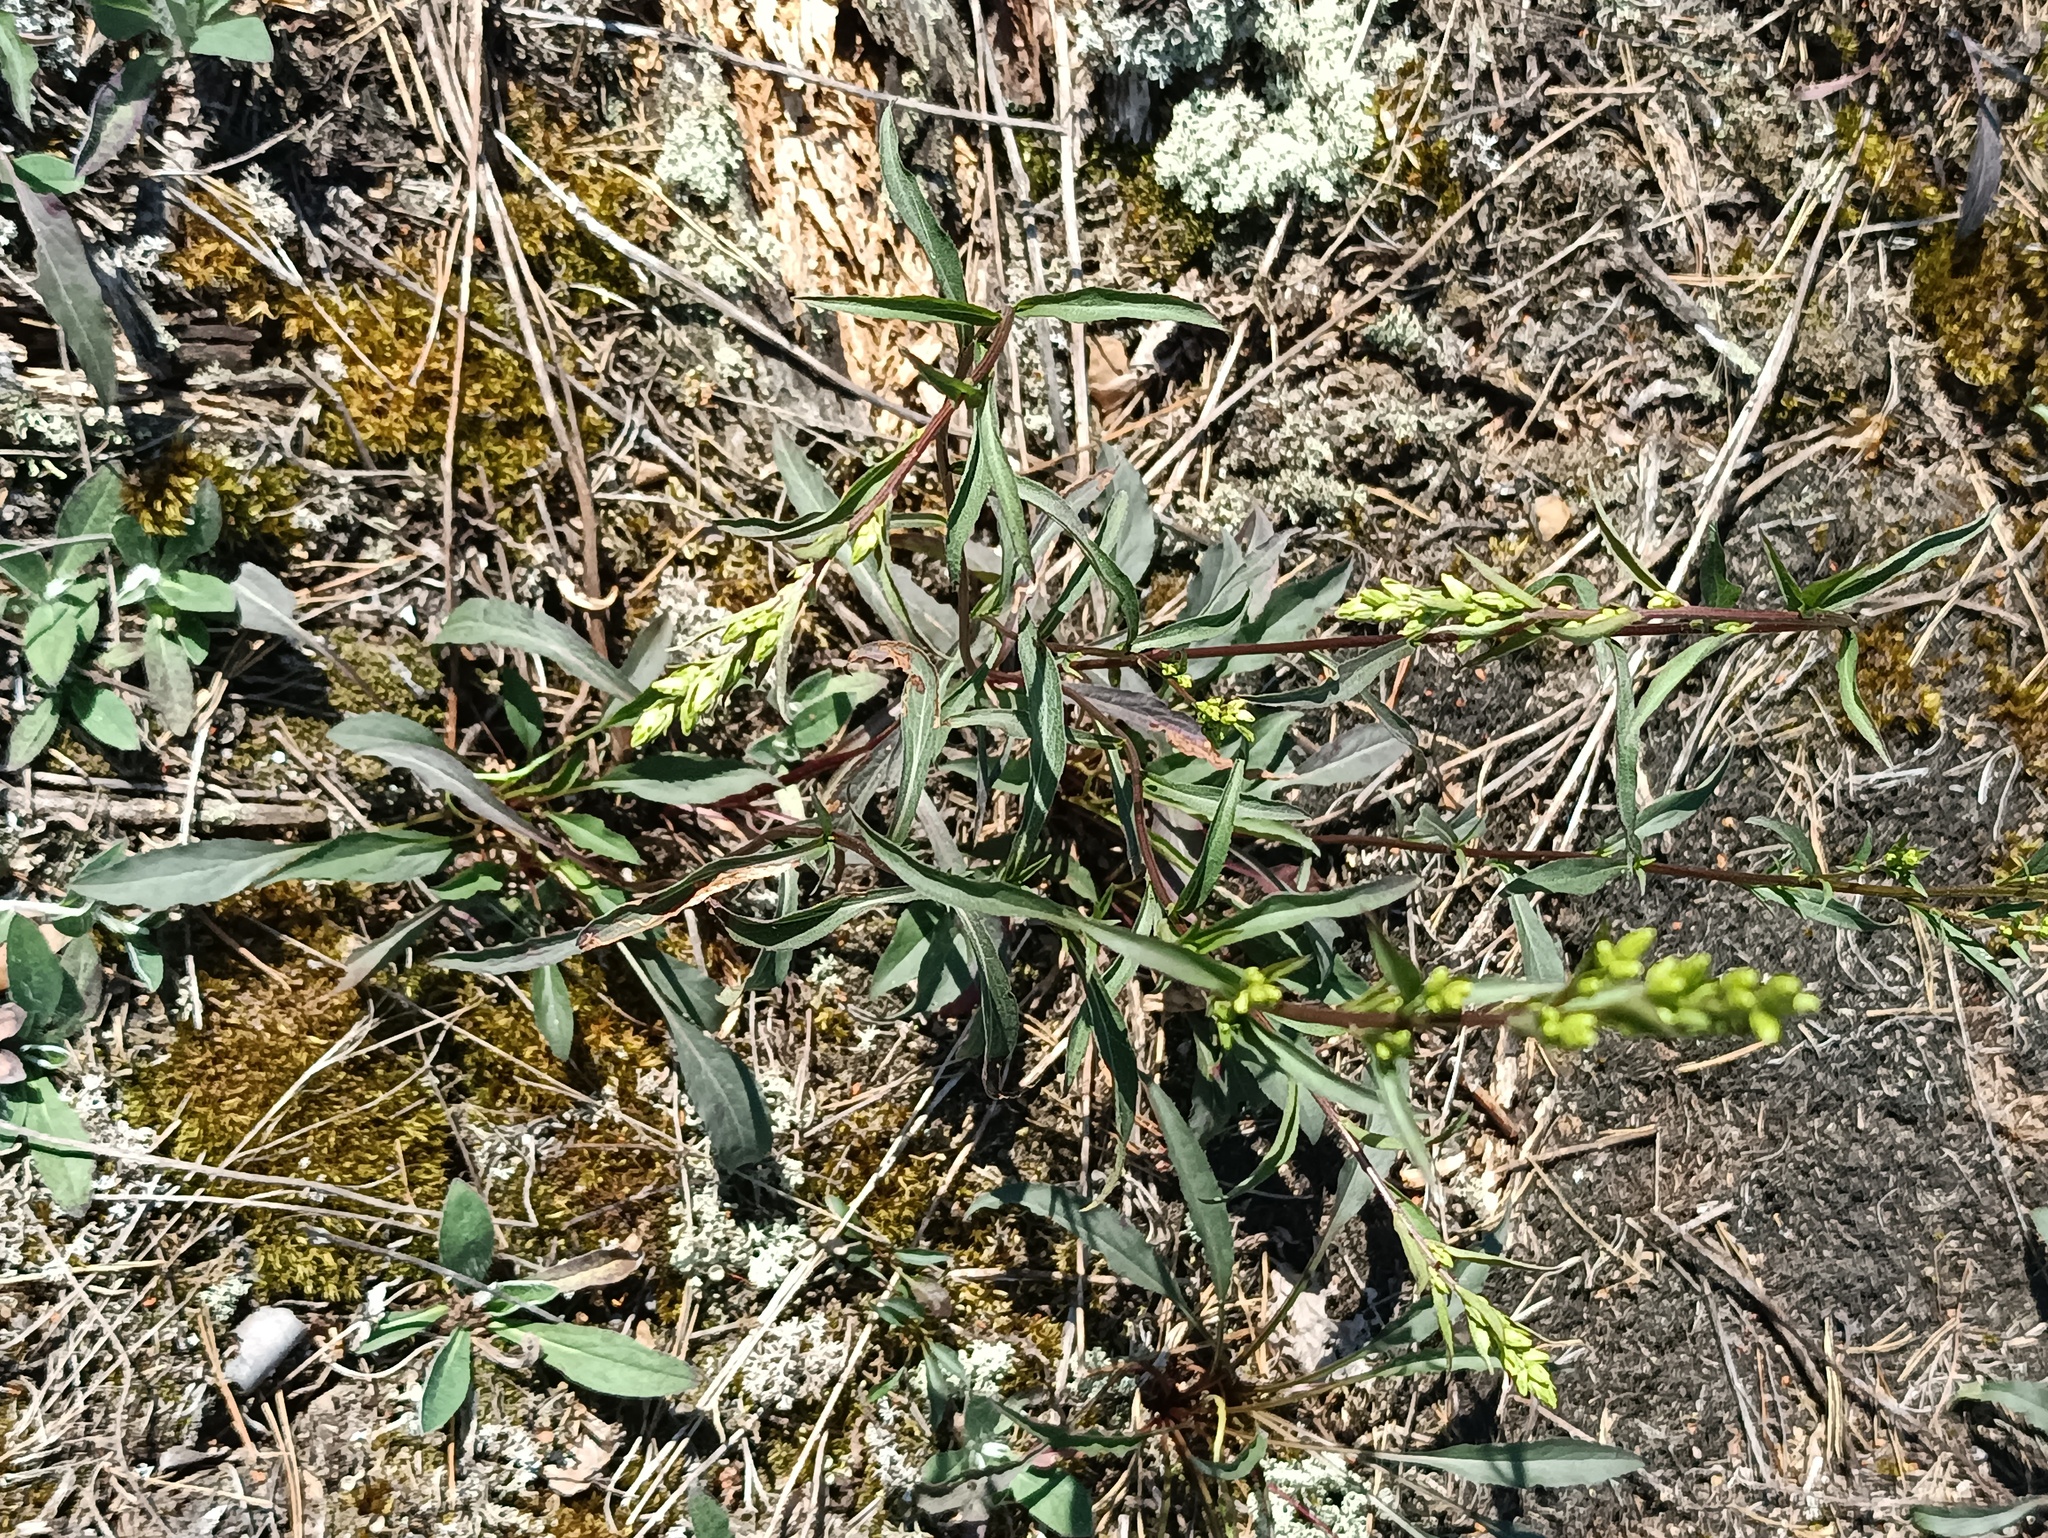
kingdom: Plantae
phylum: Tracheophyta
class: Magnoliopsida
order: Asterales
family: Asteraceae
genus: Solidago
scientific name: Solidago virgaurea
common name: Goldenrod
